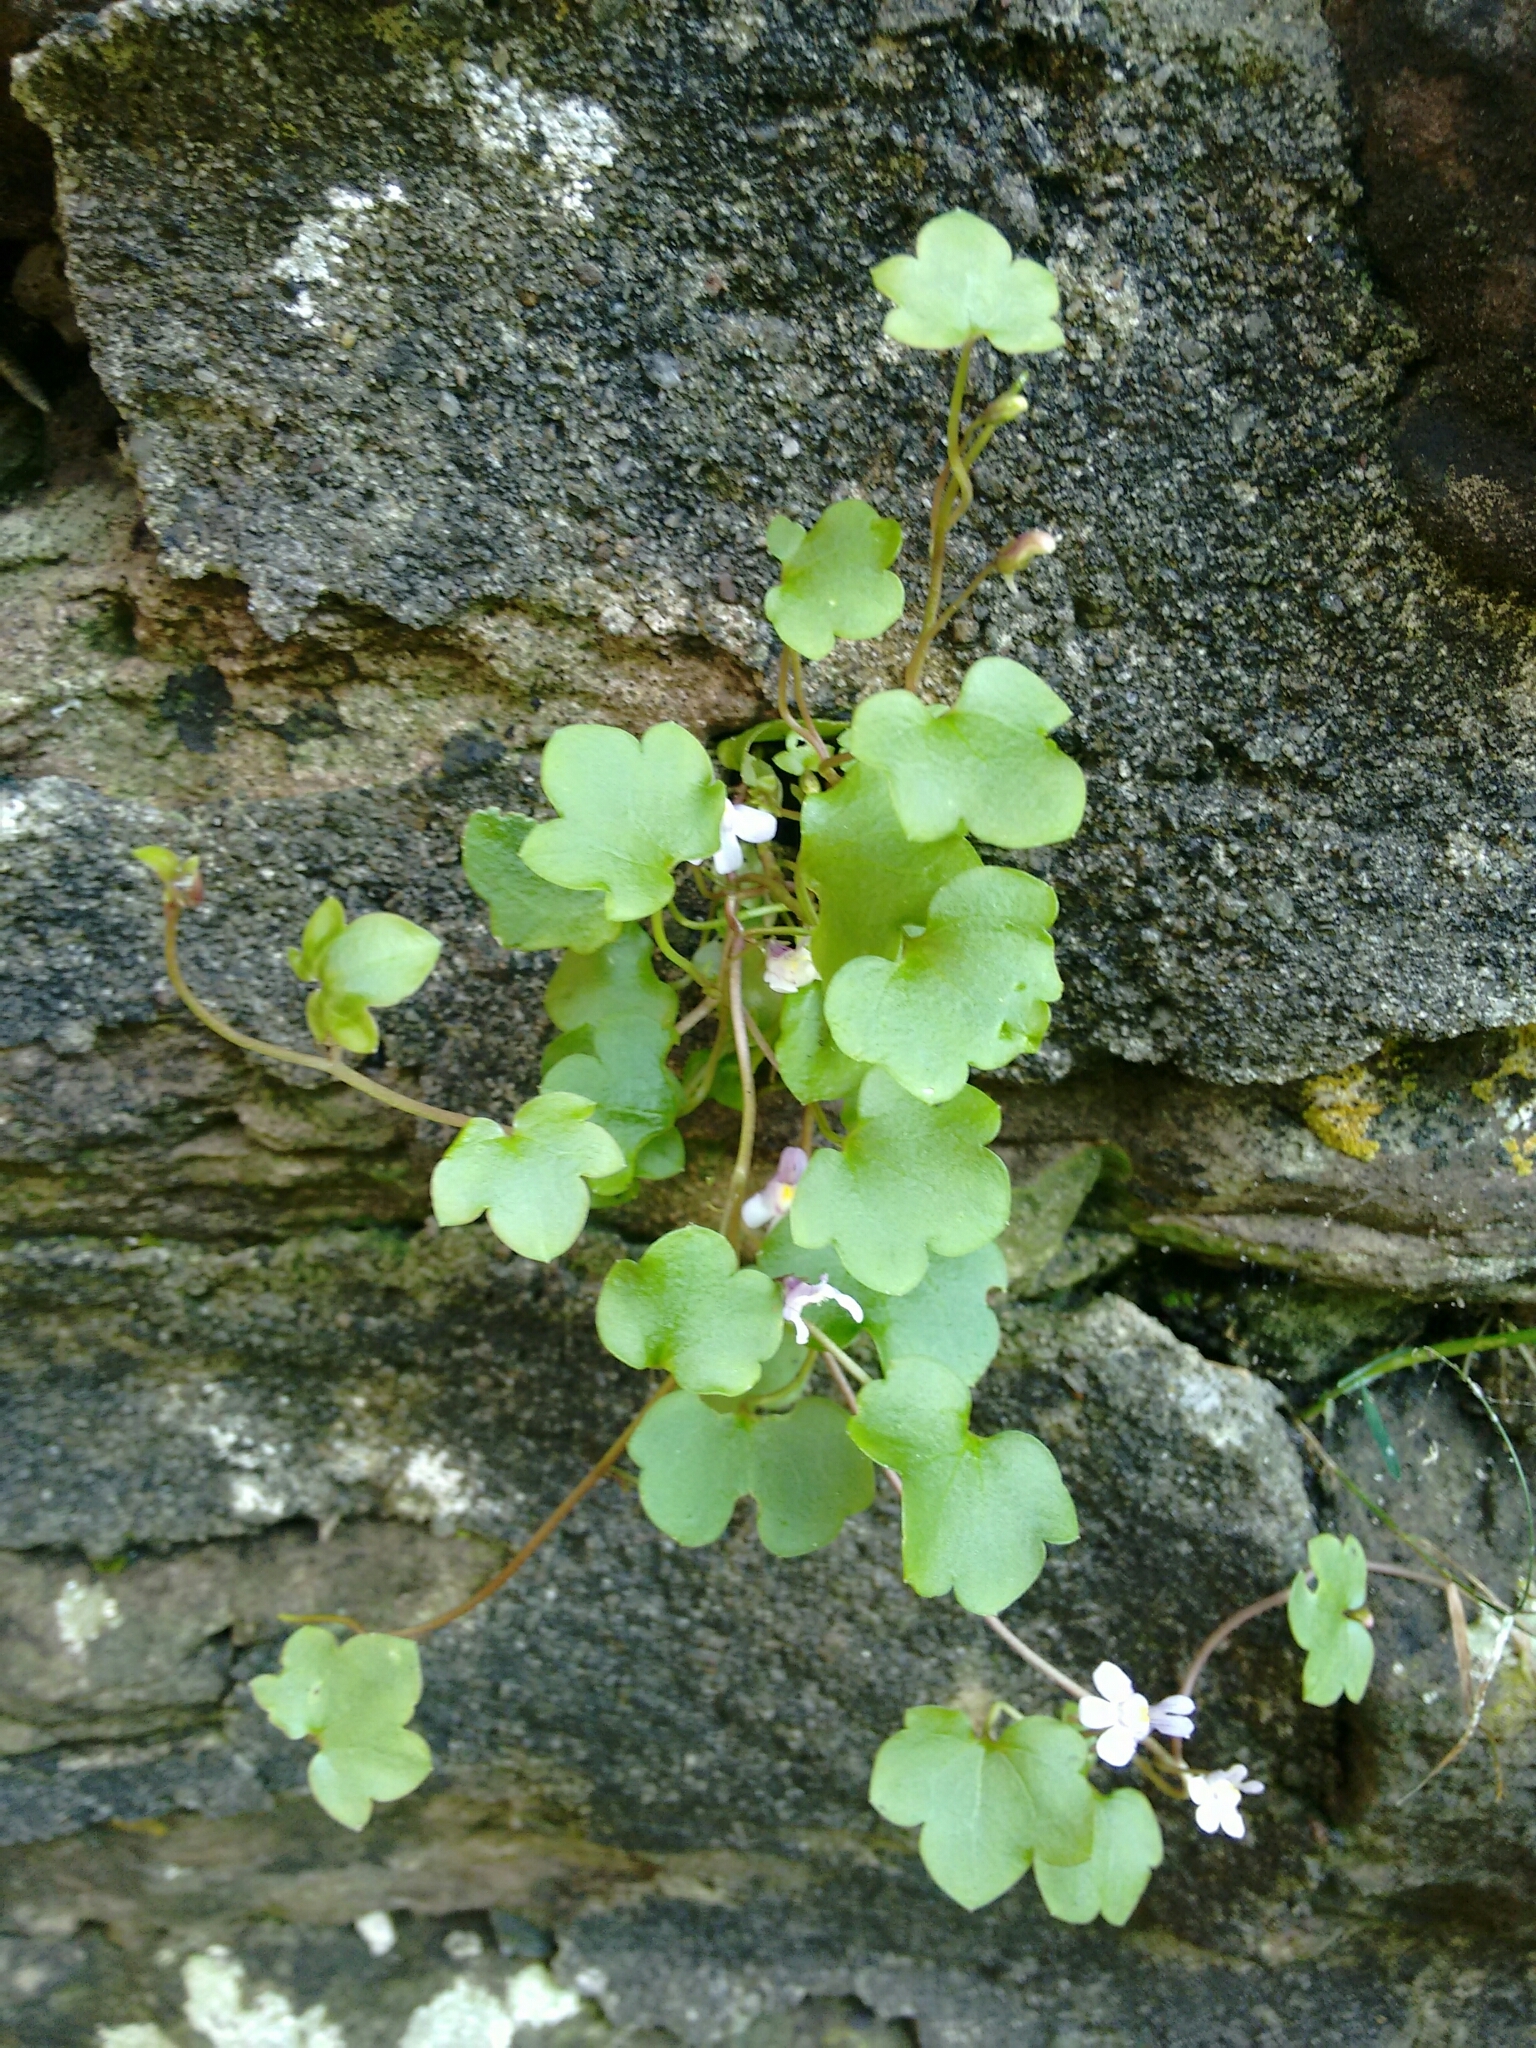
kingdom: Plantae
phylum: Tracheophyta
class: Magnoliopsida
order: Lamiales
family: Plantaginaceae
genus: Cymbalaria
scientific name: Cymbalaria muralis
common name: Ivy-leaved toadflax
